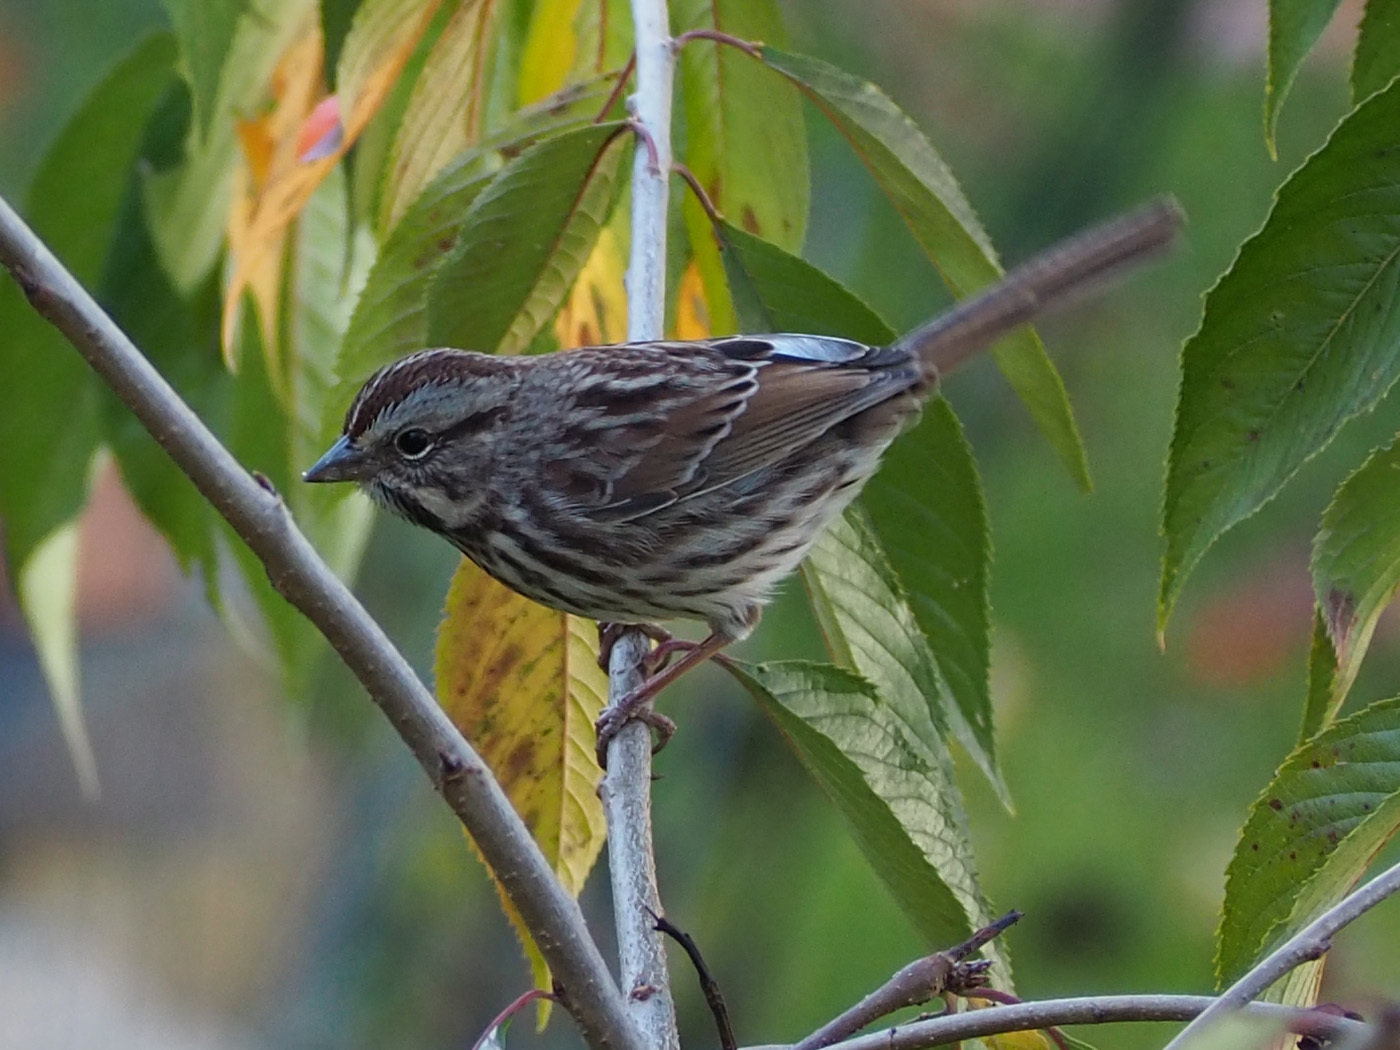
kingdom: Animalia
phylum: Chordata
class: Aves
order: Passeriformes
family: Passerellidae
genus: Melospiza
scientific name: Melospiza melodia
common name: Song sparrow
